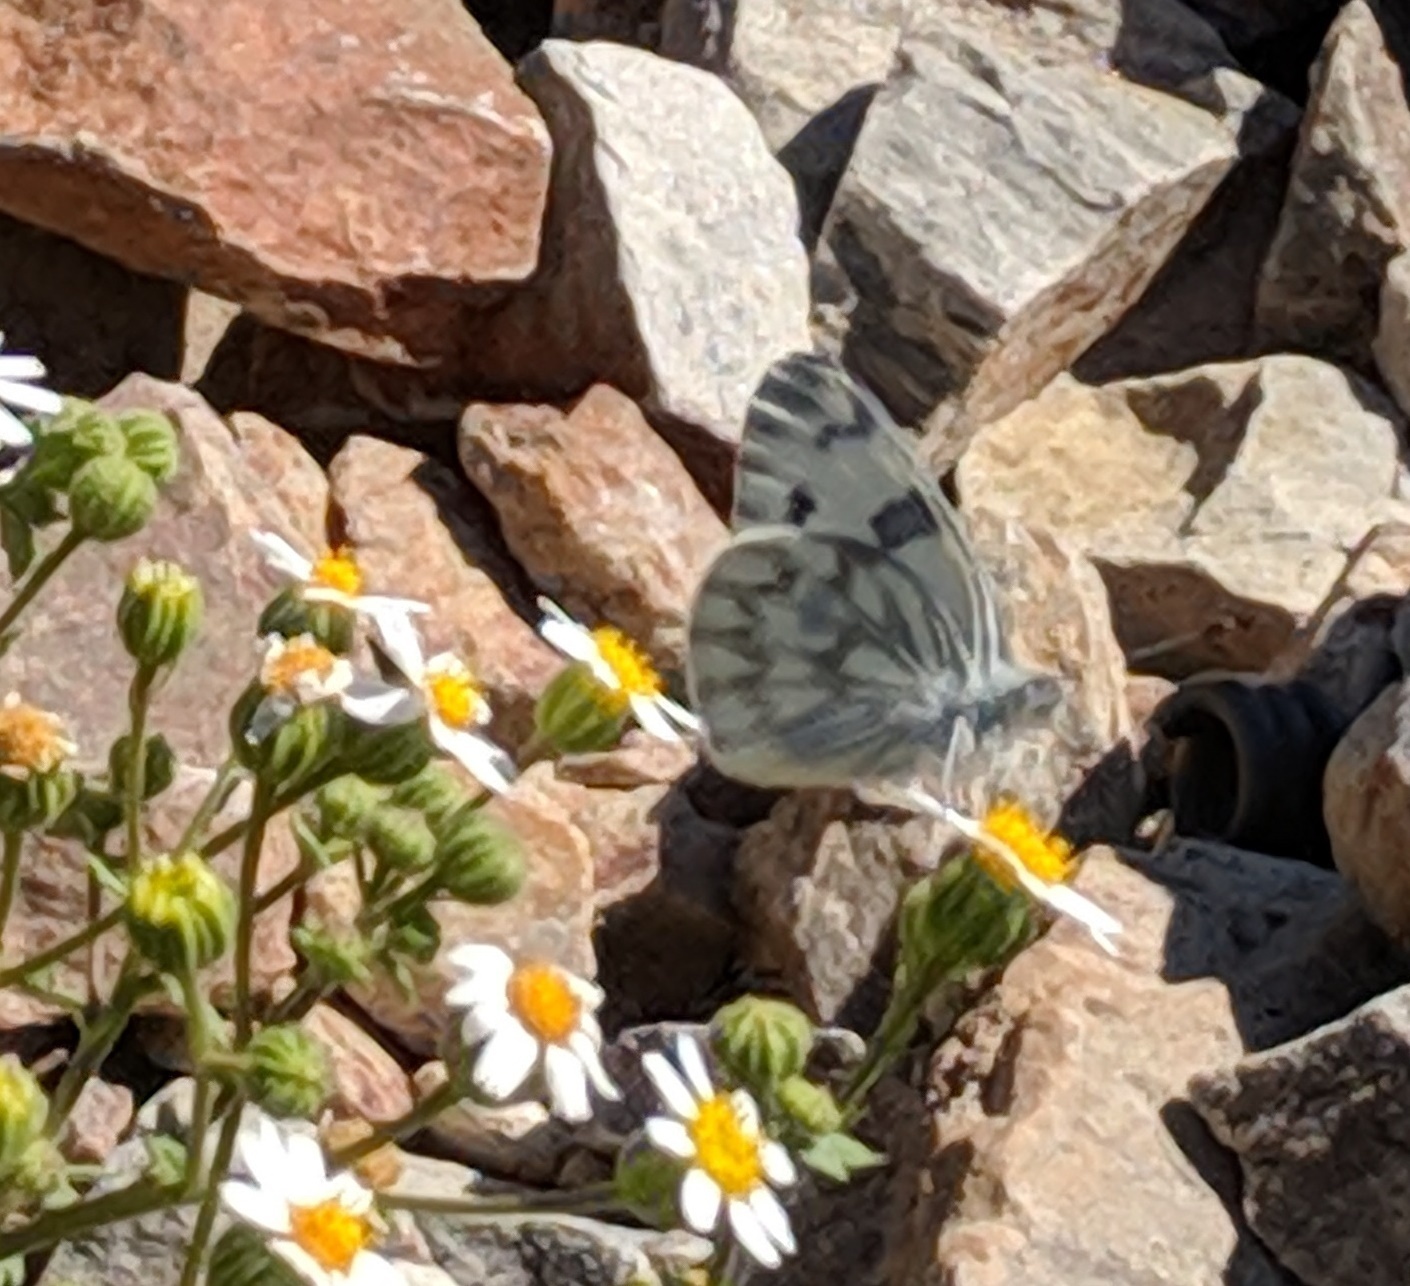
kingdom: Animalia
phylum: Arthropoda
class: Insecta
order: Lepidoptera
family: Pieridae
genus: Pontia
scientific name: Pontia protodice
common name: Checkered white
